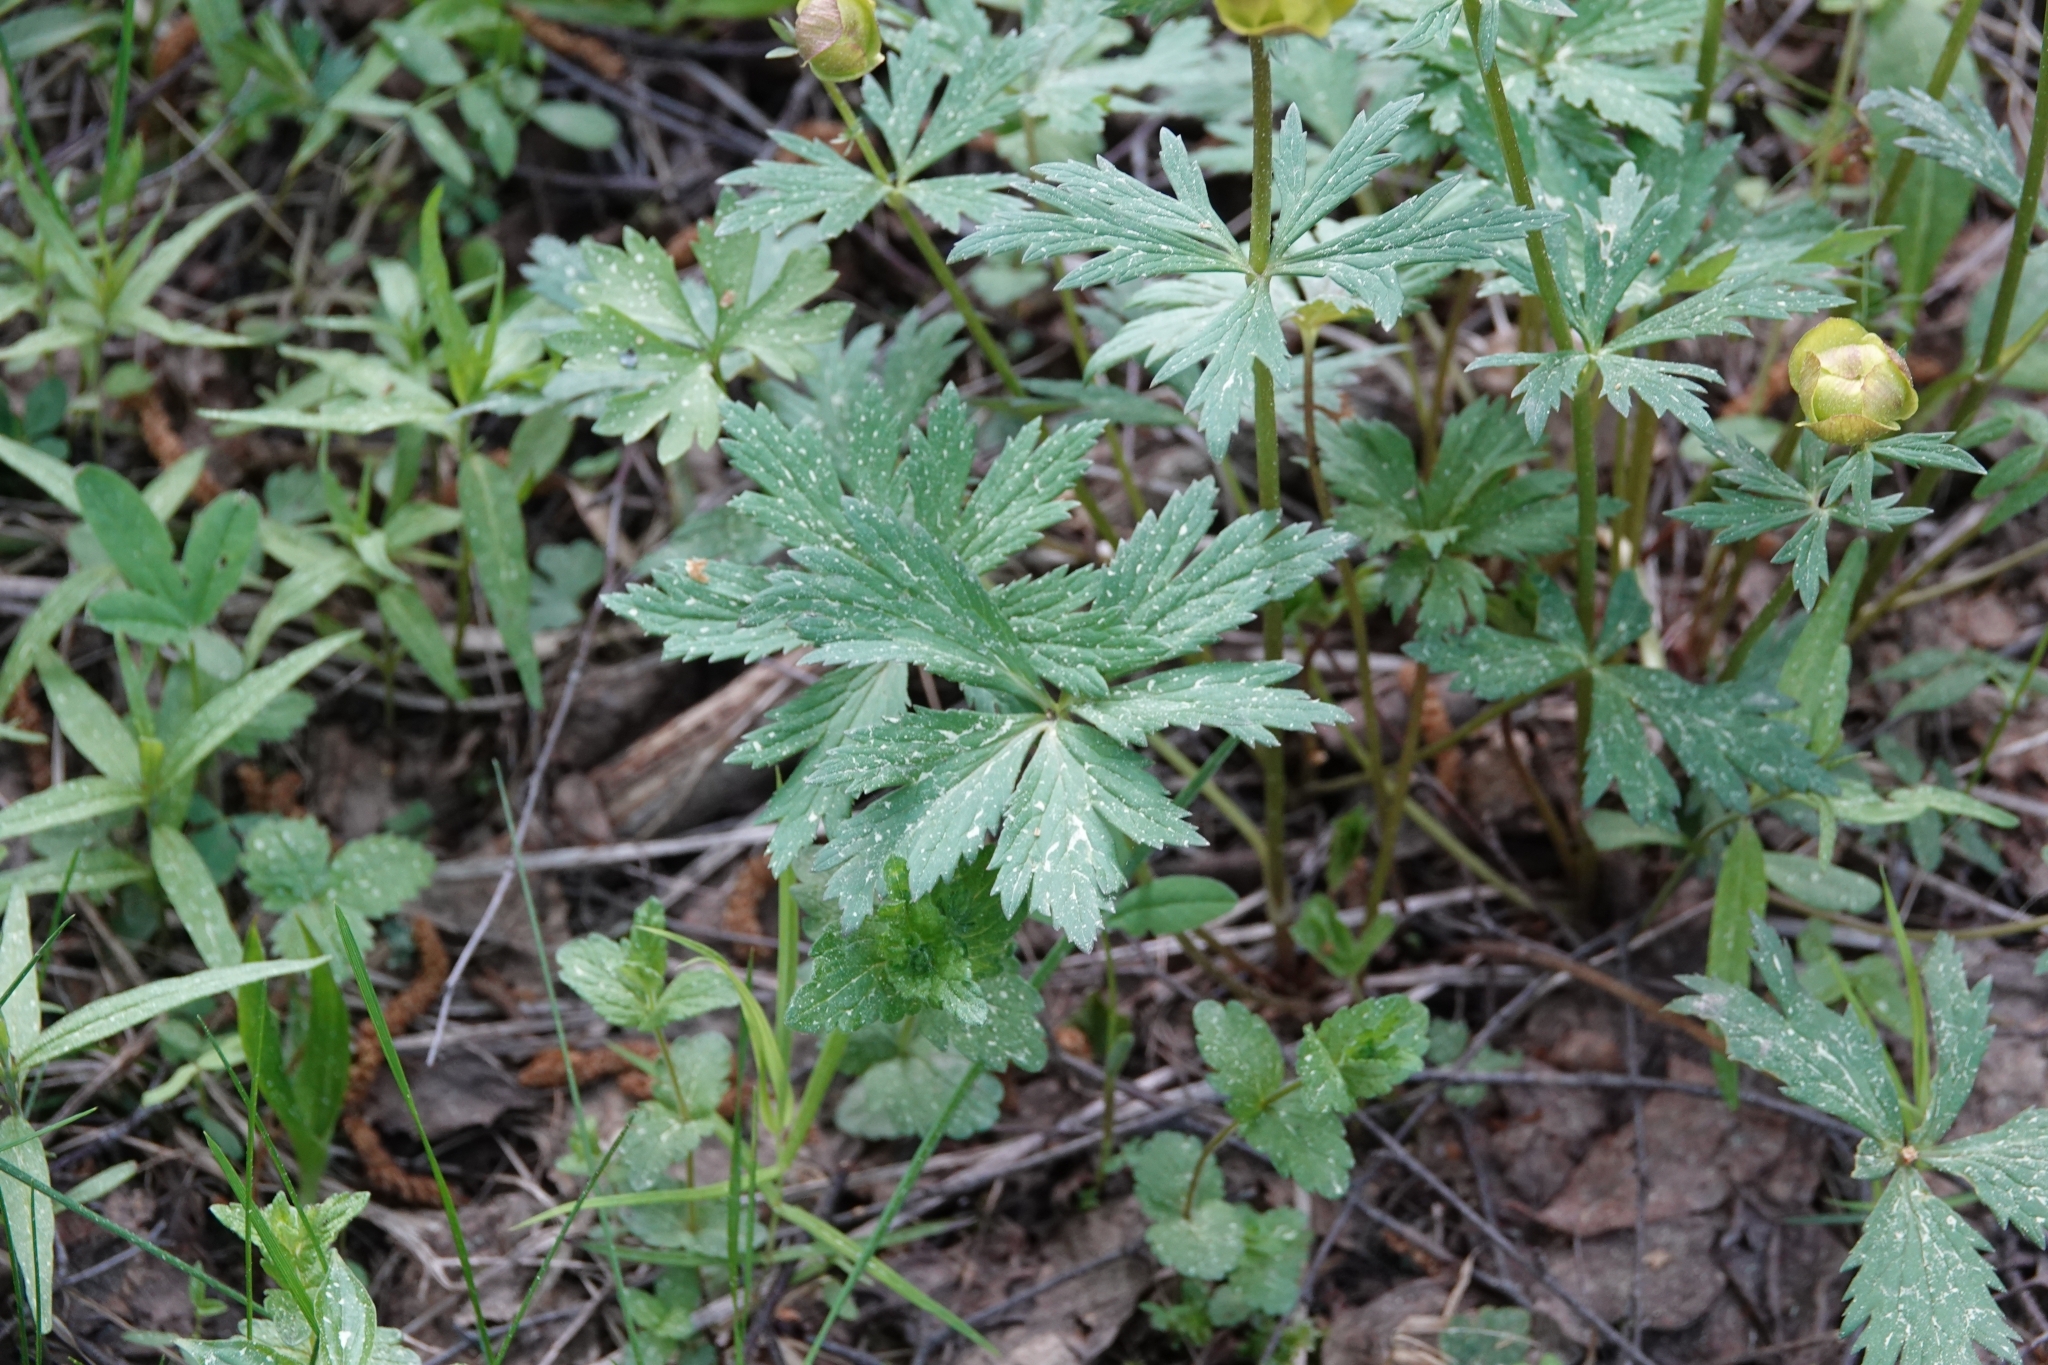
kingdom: Plantae
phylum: Tracheophyta
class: Magnoliopsida
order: Ranunculales
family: Ranunculaceae
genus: Trollius
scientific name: Trollius europaeus
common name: European globeflower
